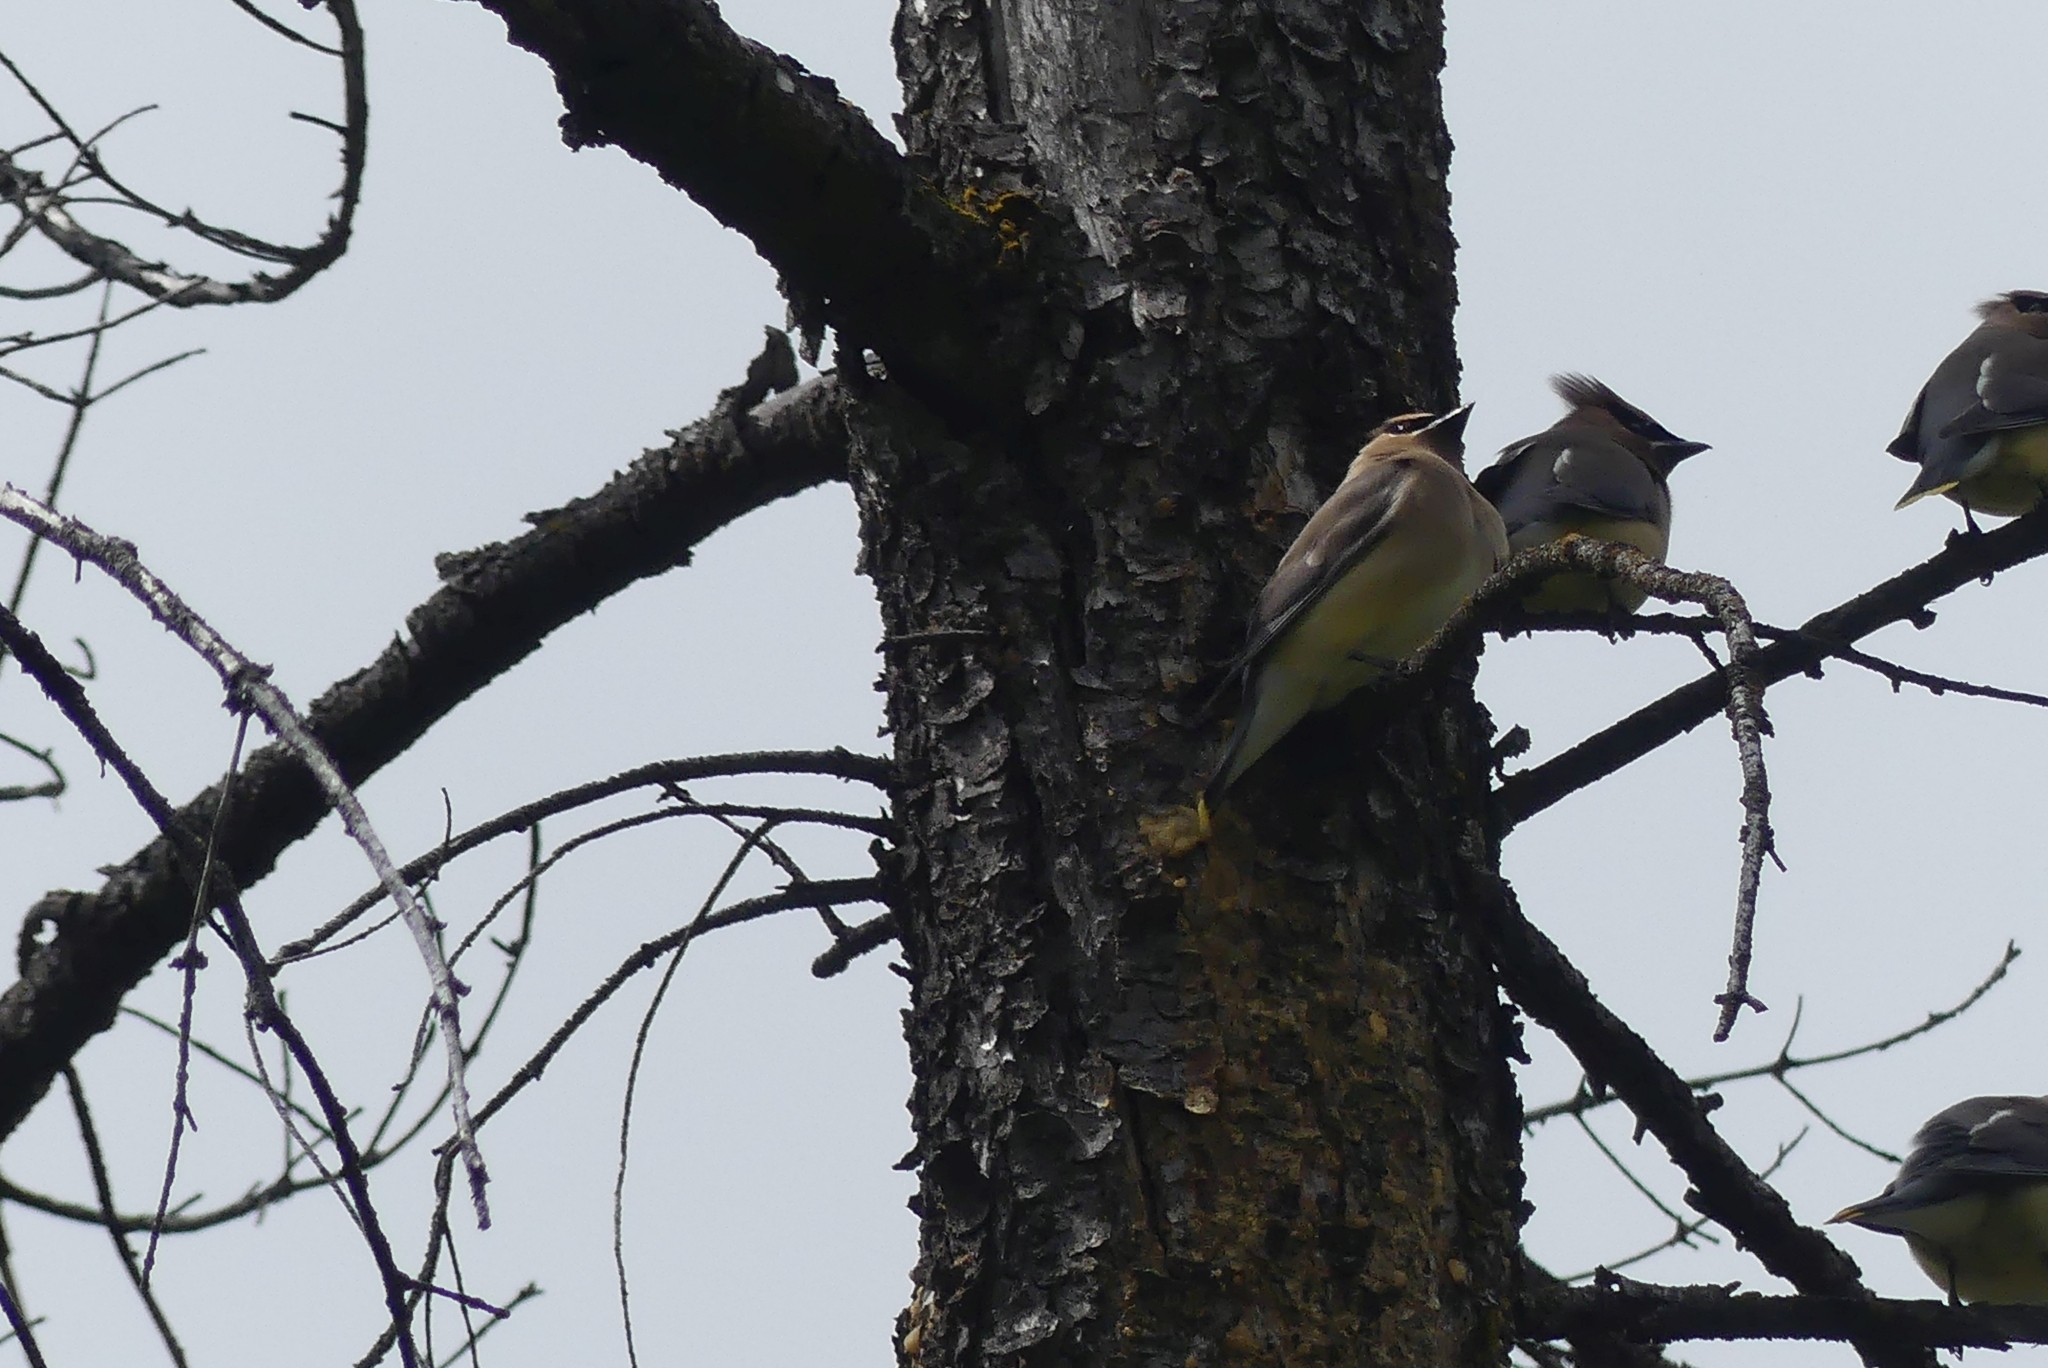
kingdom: Animalia
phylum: Chordata
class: Aves
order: Passeriformes
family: Bombycillidae
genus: Bombycilla
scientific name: Bombycilla cedrorum
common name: Cedar waxwing
